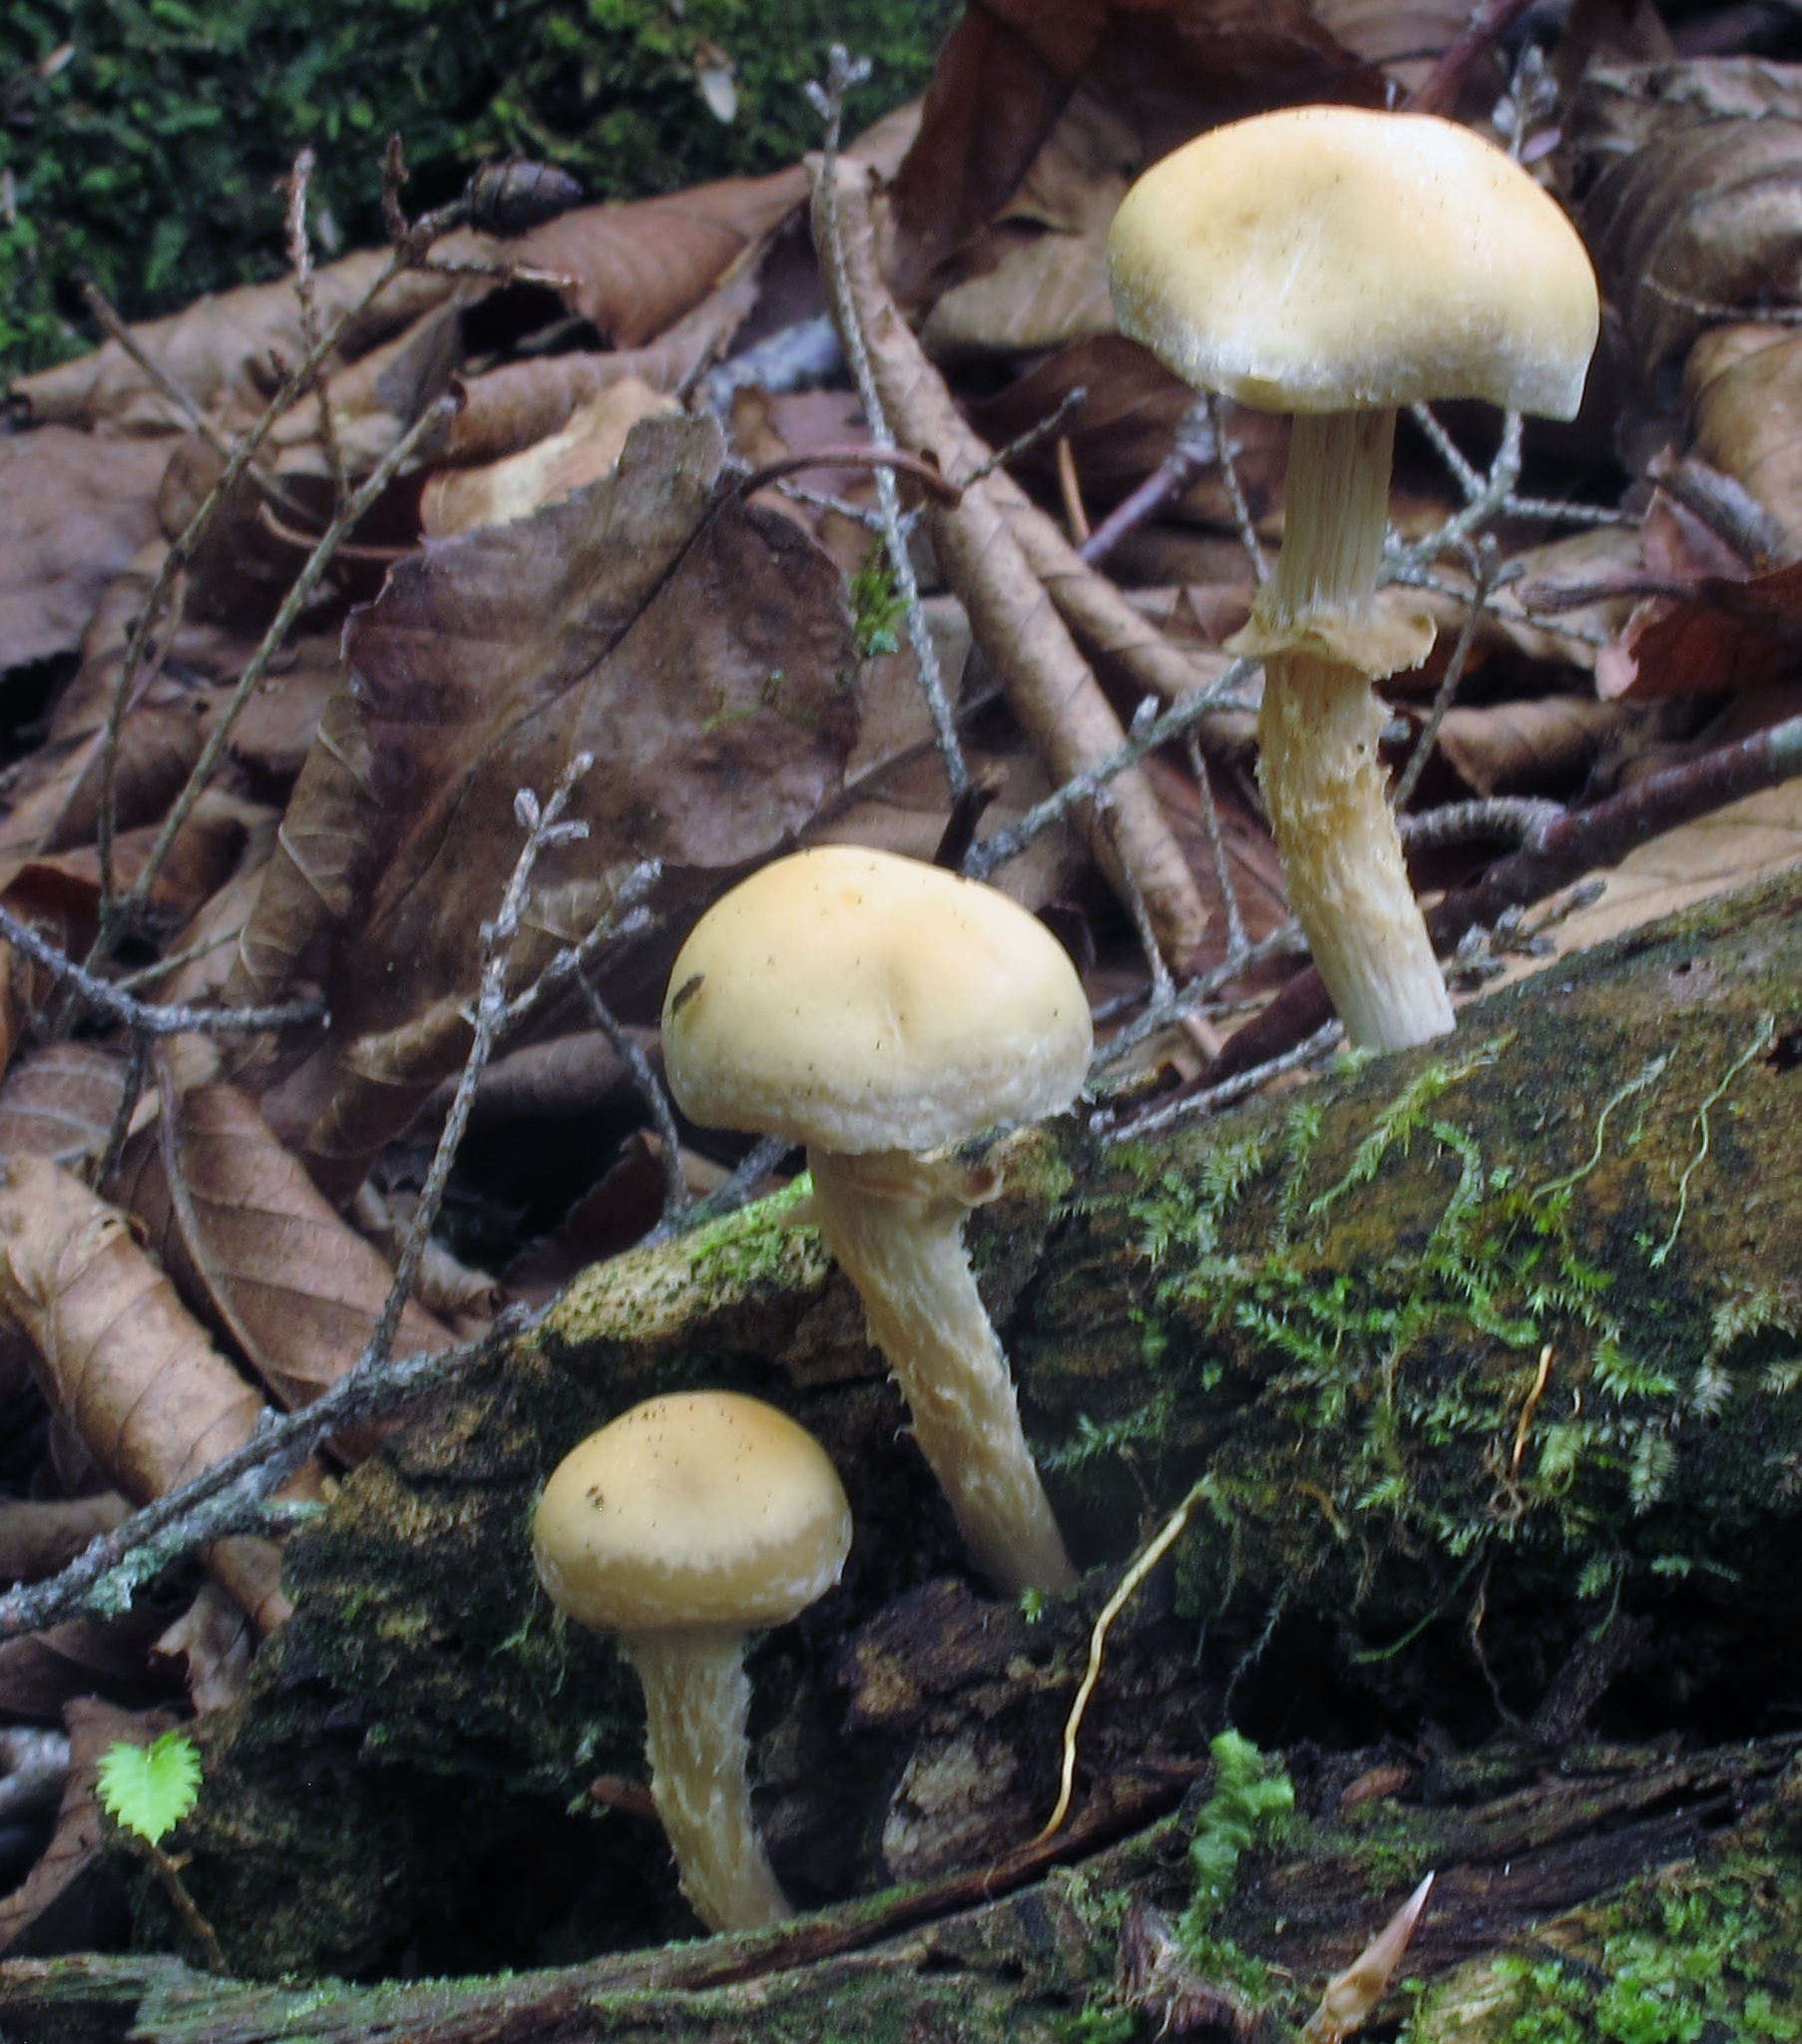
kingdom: Fungi
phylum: Basidiomycota
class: Agaricomycetes
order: Agaricales
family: Strophariaceae
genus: Kuehneromyces
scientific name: Kuehneromyces marginellus
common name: Sheathed woodtuft
